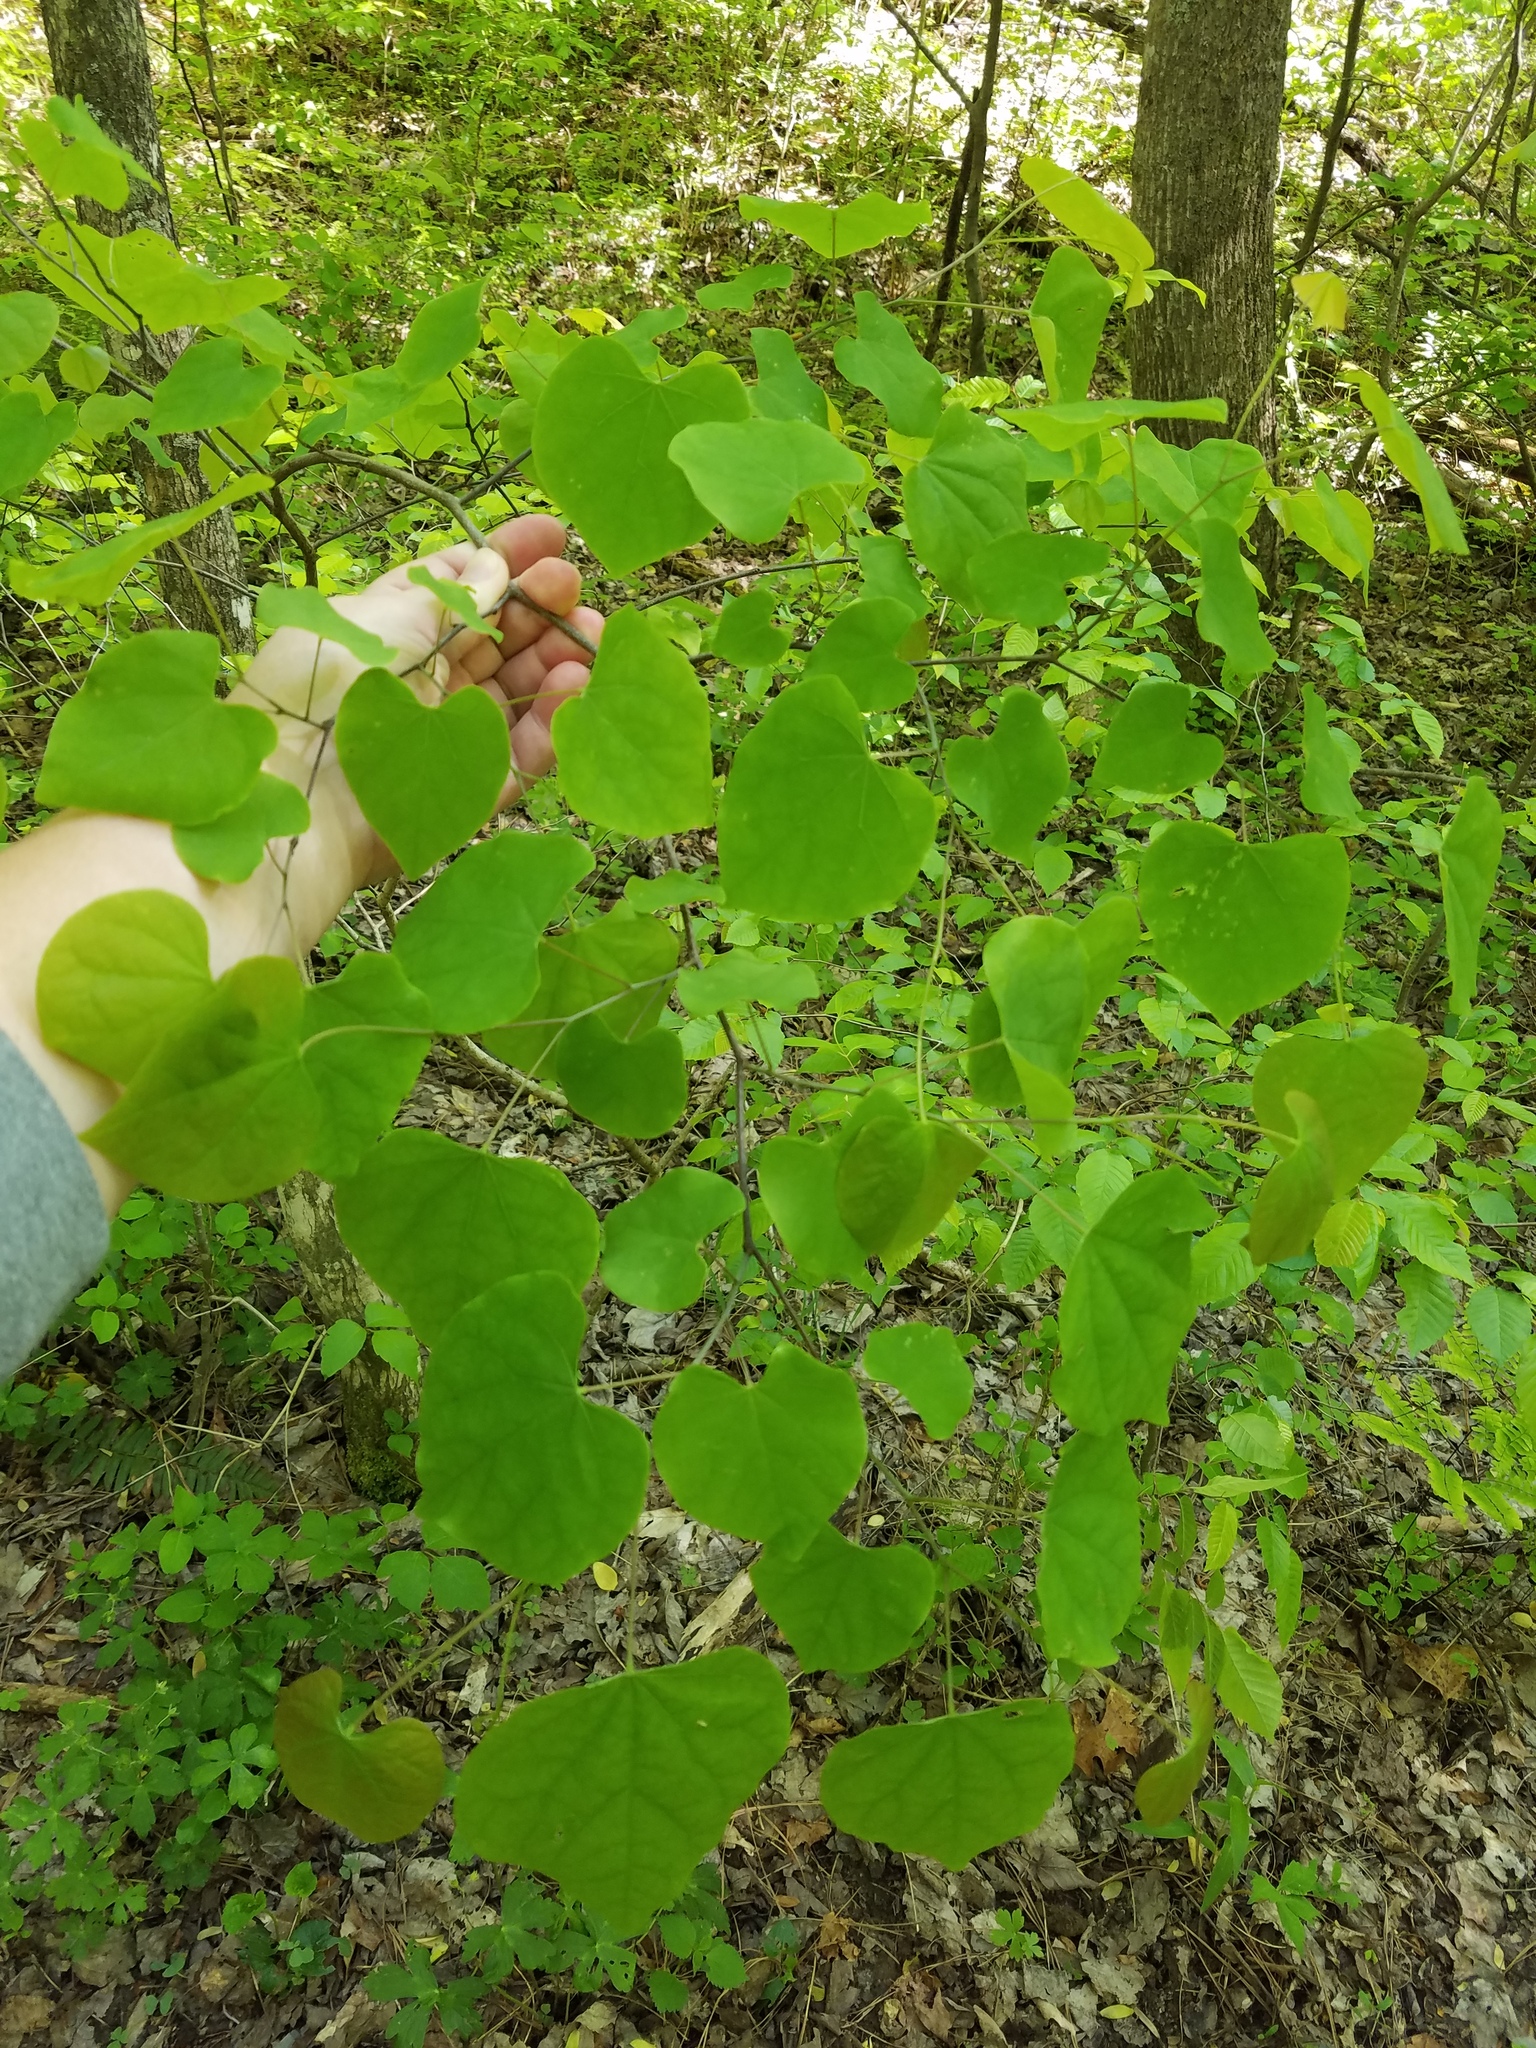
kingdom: Plantae
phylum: Tracheophyta
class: Magnoliopsida
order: Fabales
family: Fabaceae
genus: Cercis
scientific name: Cercis canadensis
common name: Eastern redbud
